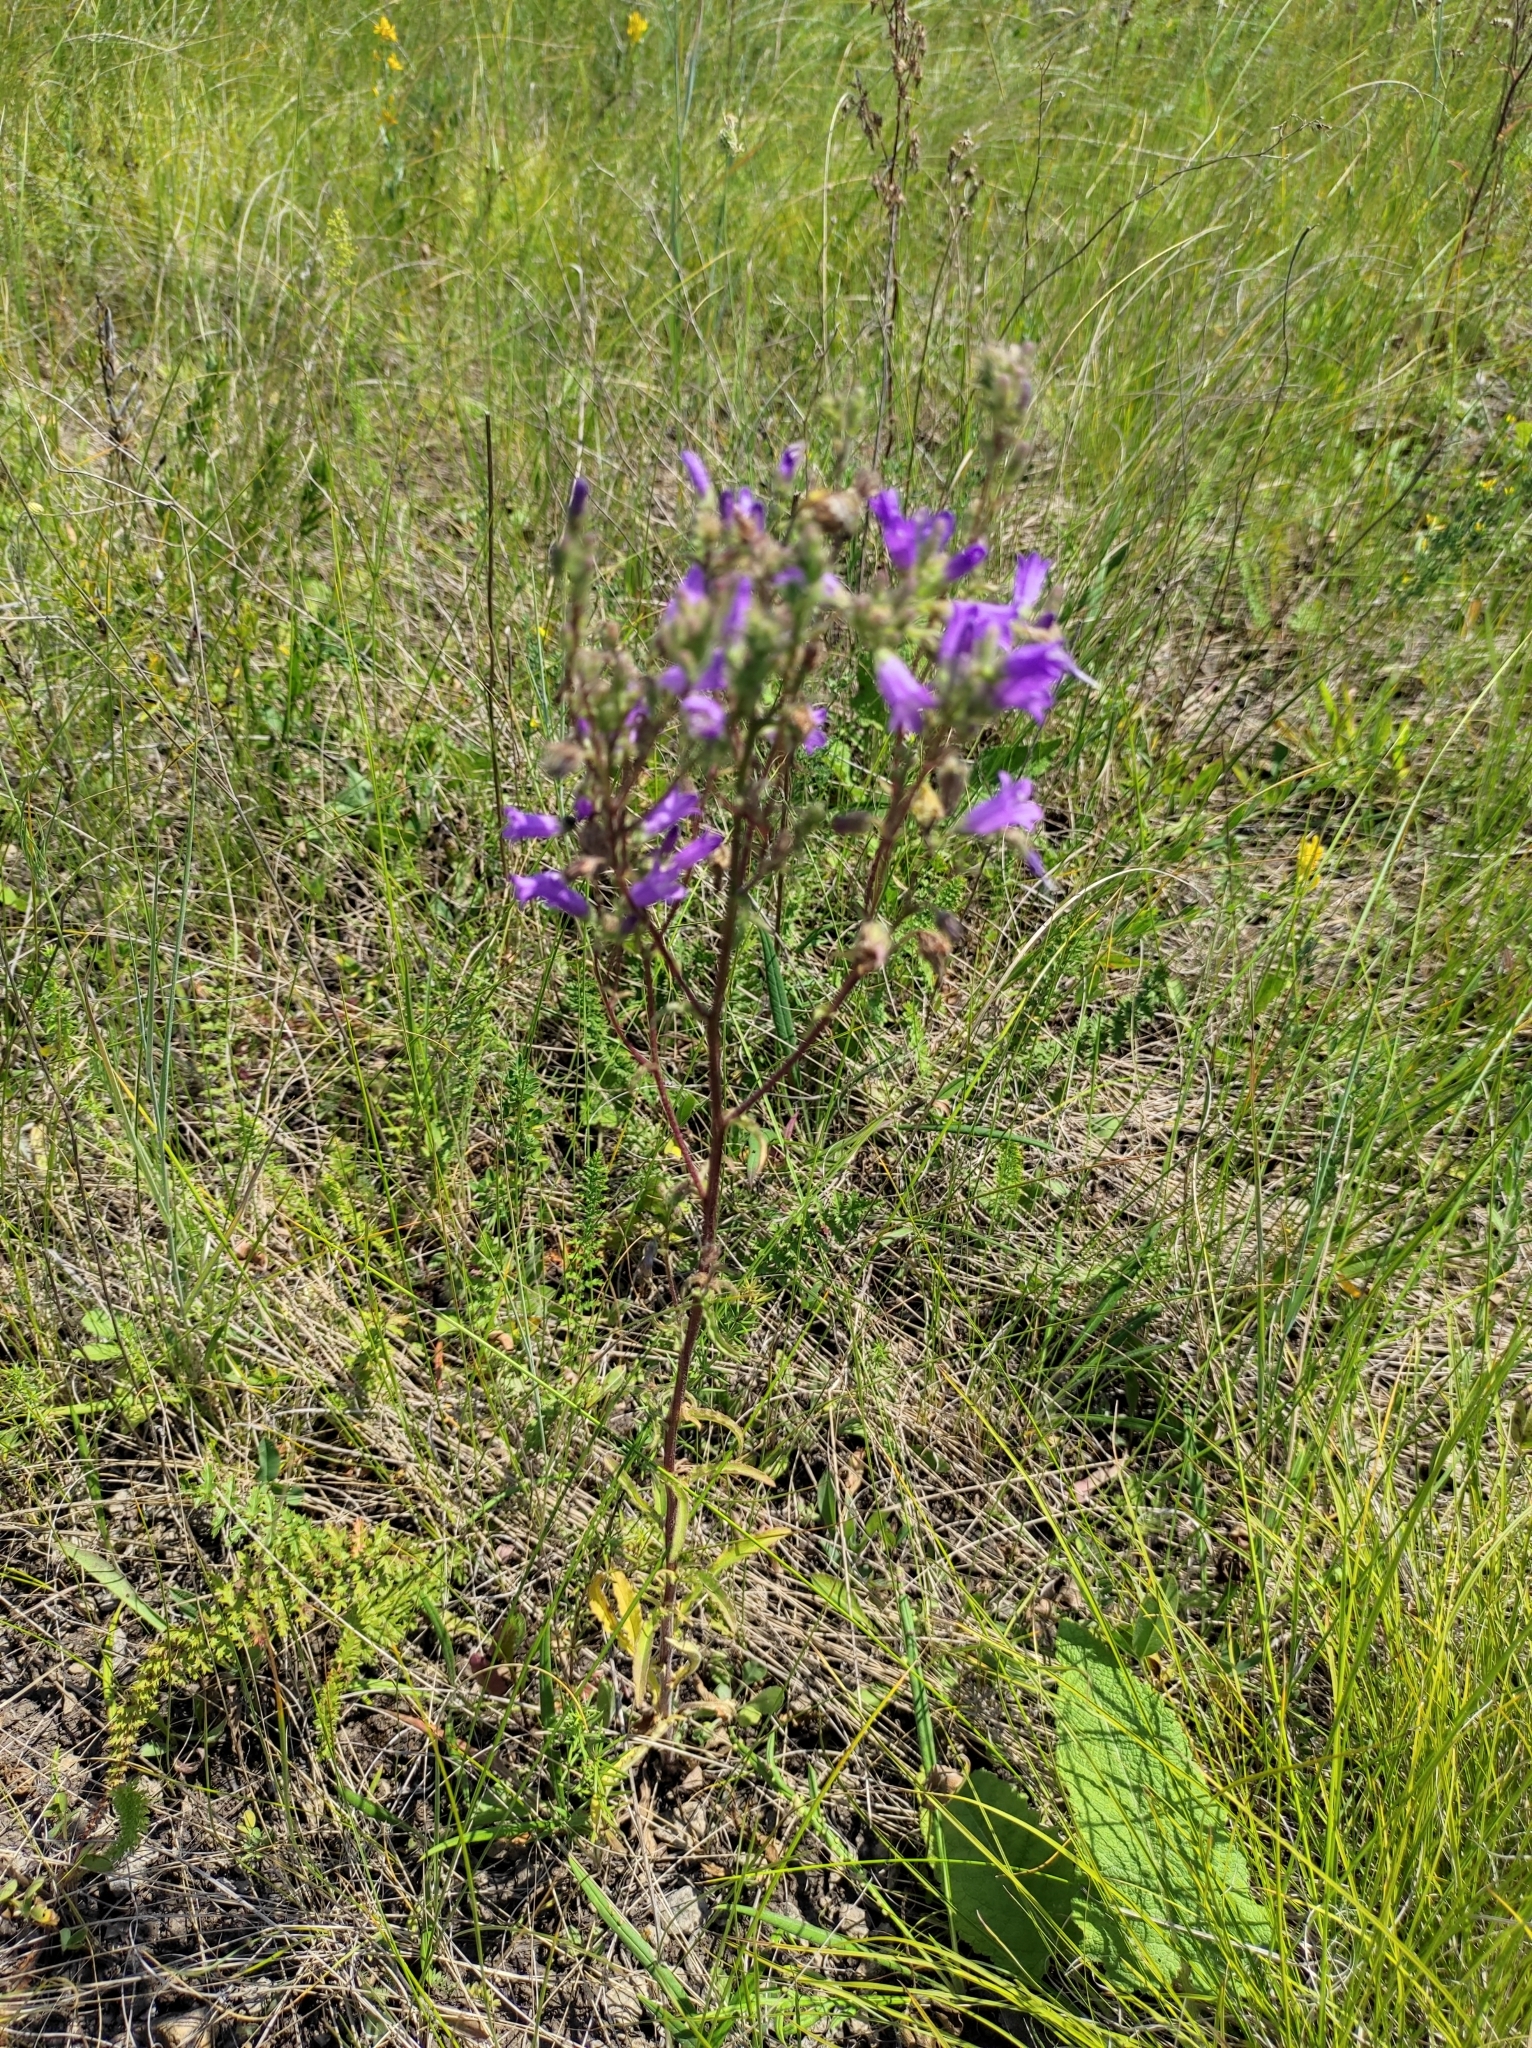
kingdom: Plantae
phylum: Tracheophyta
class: Magnoliopsida
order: Asterales
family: Campanulaceae
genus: Campanula
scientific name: Campanula sibirica
